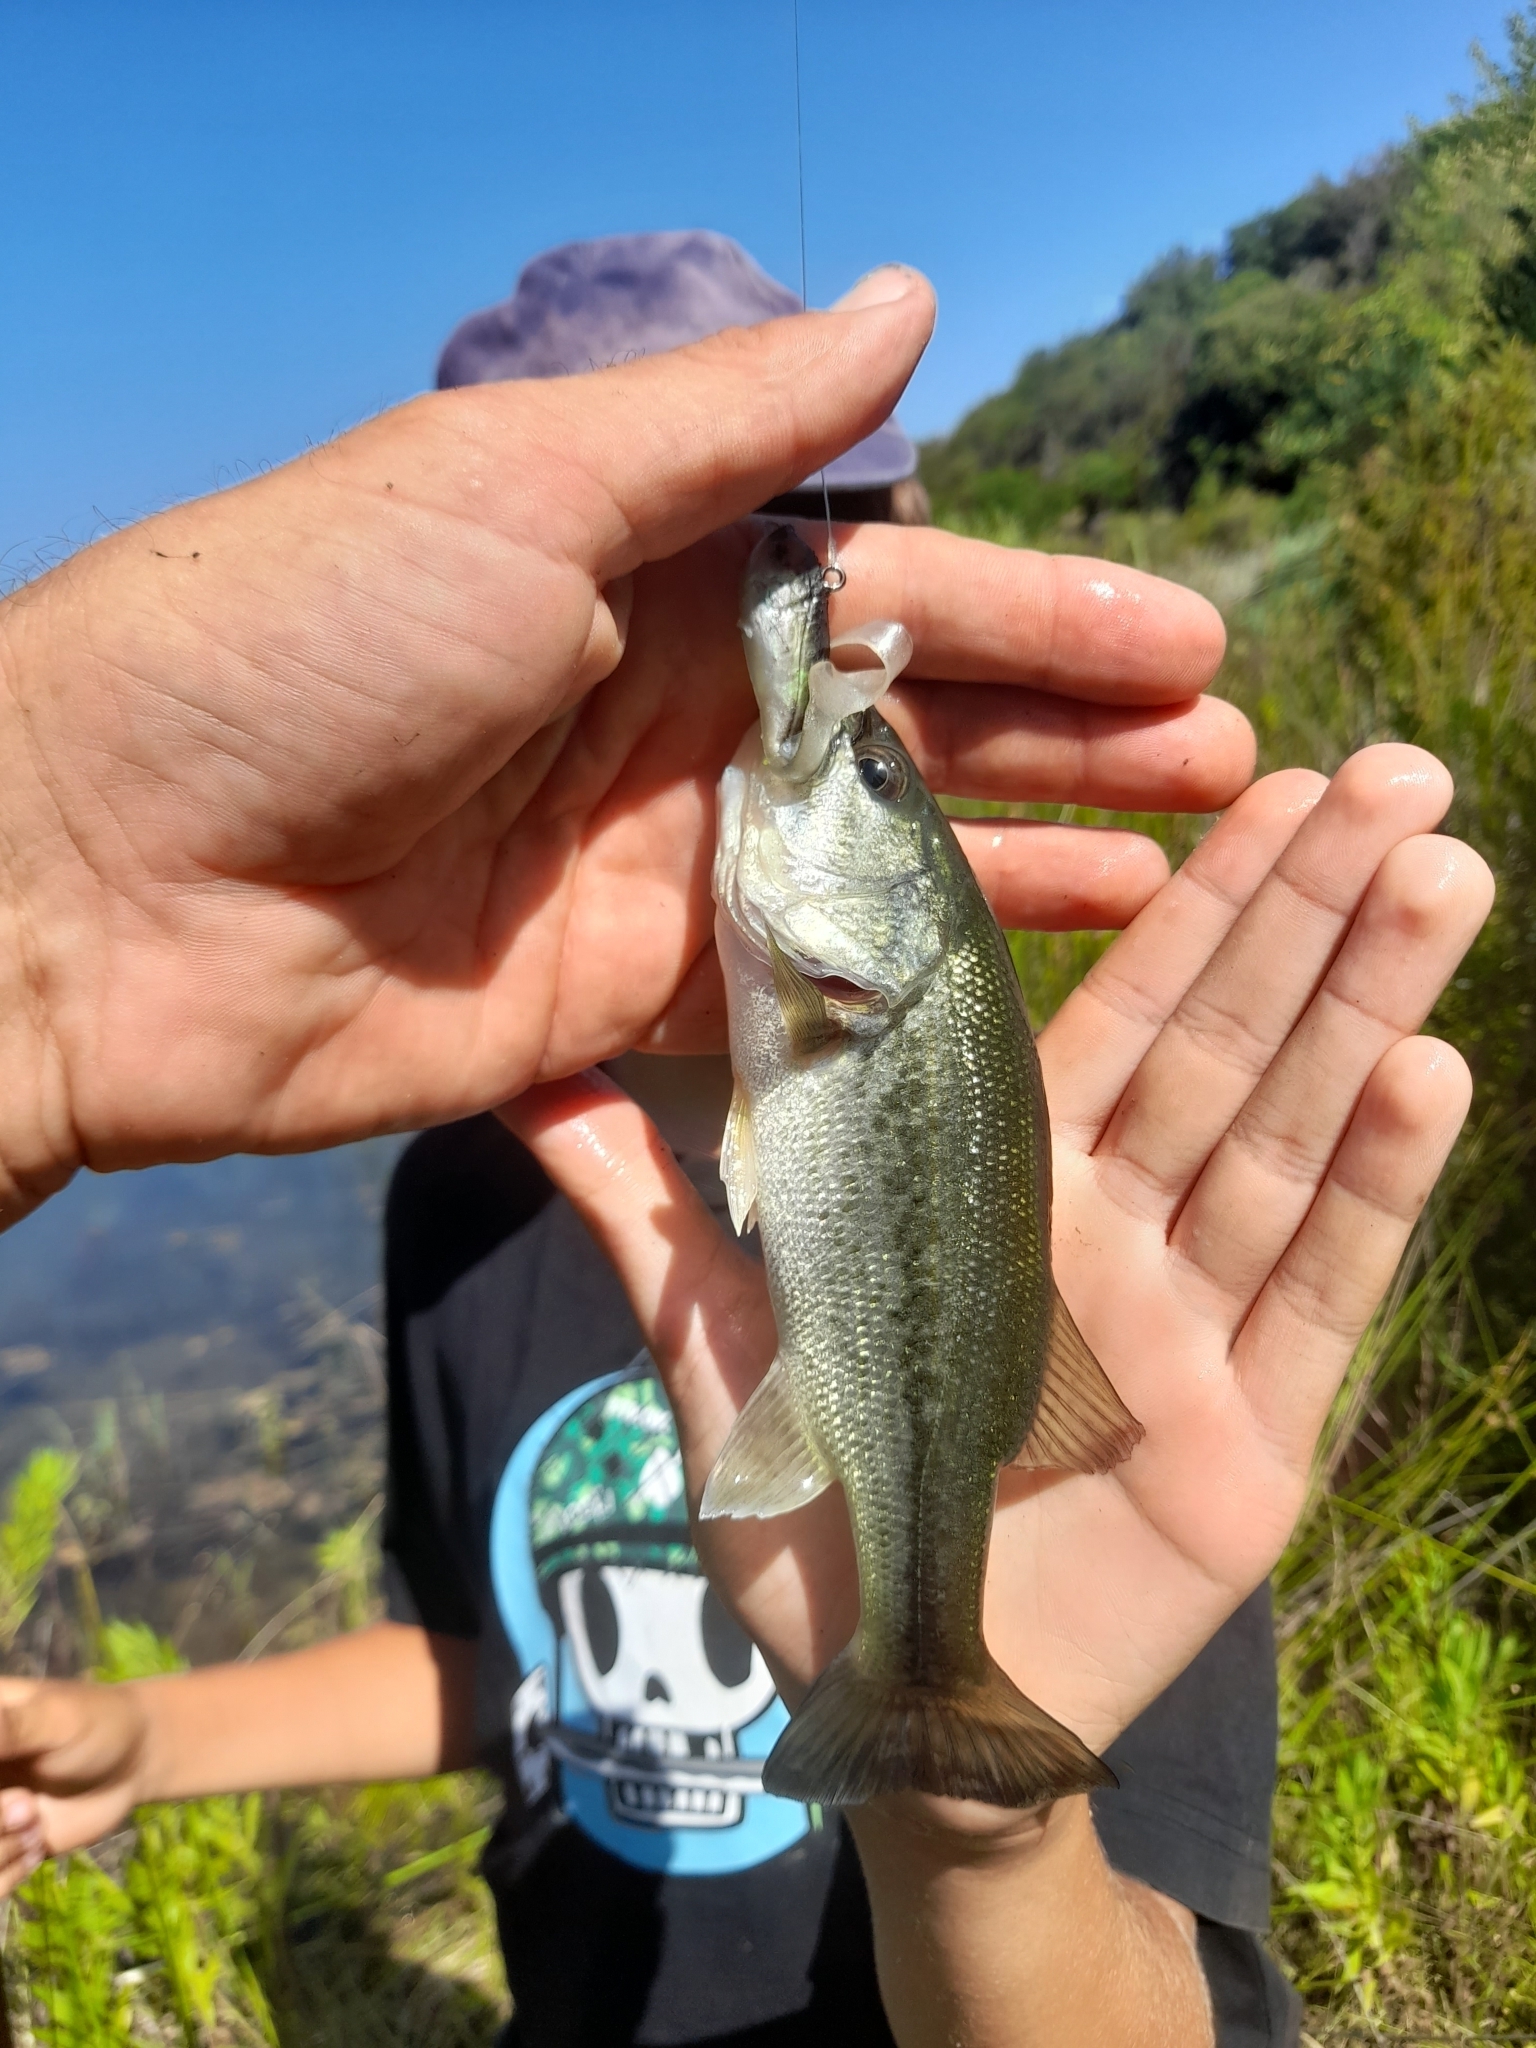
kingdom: Animalia
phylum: Chordata
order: Perciformes
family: Centrarchidae
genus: Micropterus
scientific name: Micropterus
